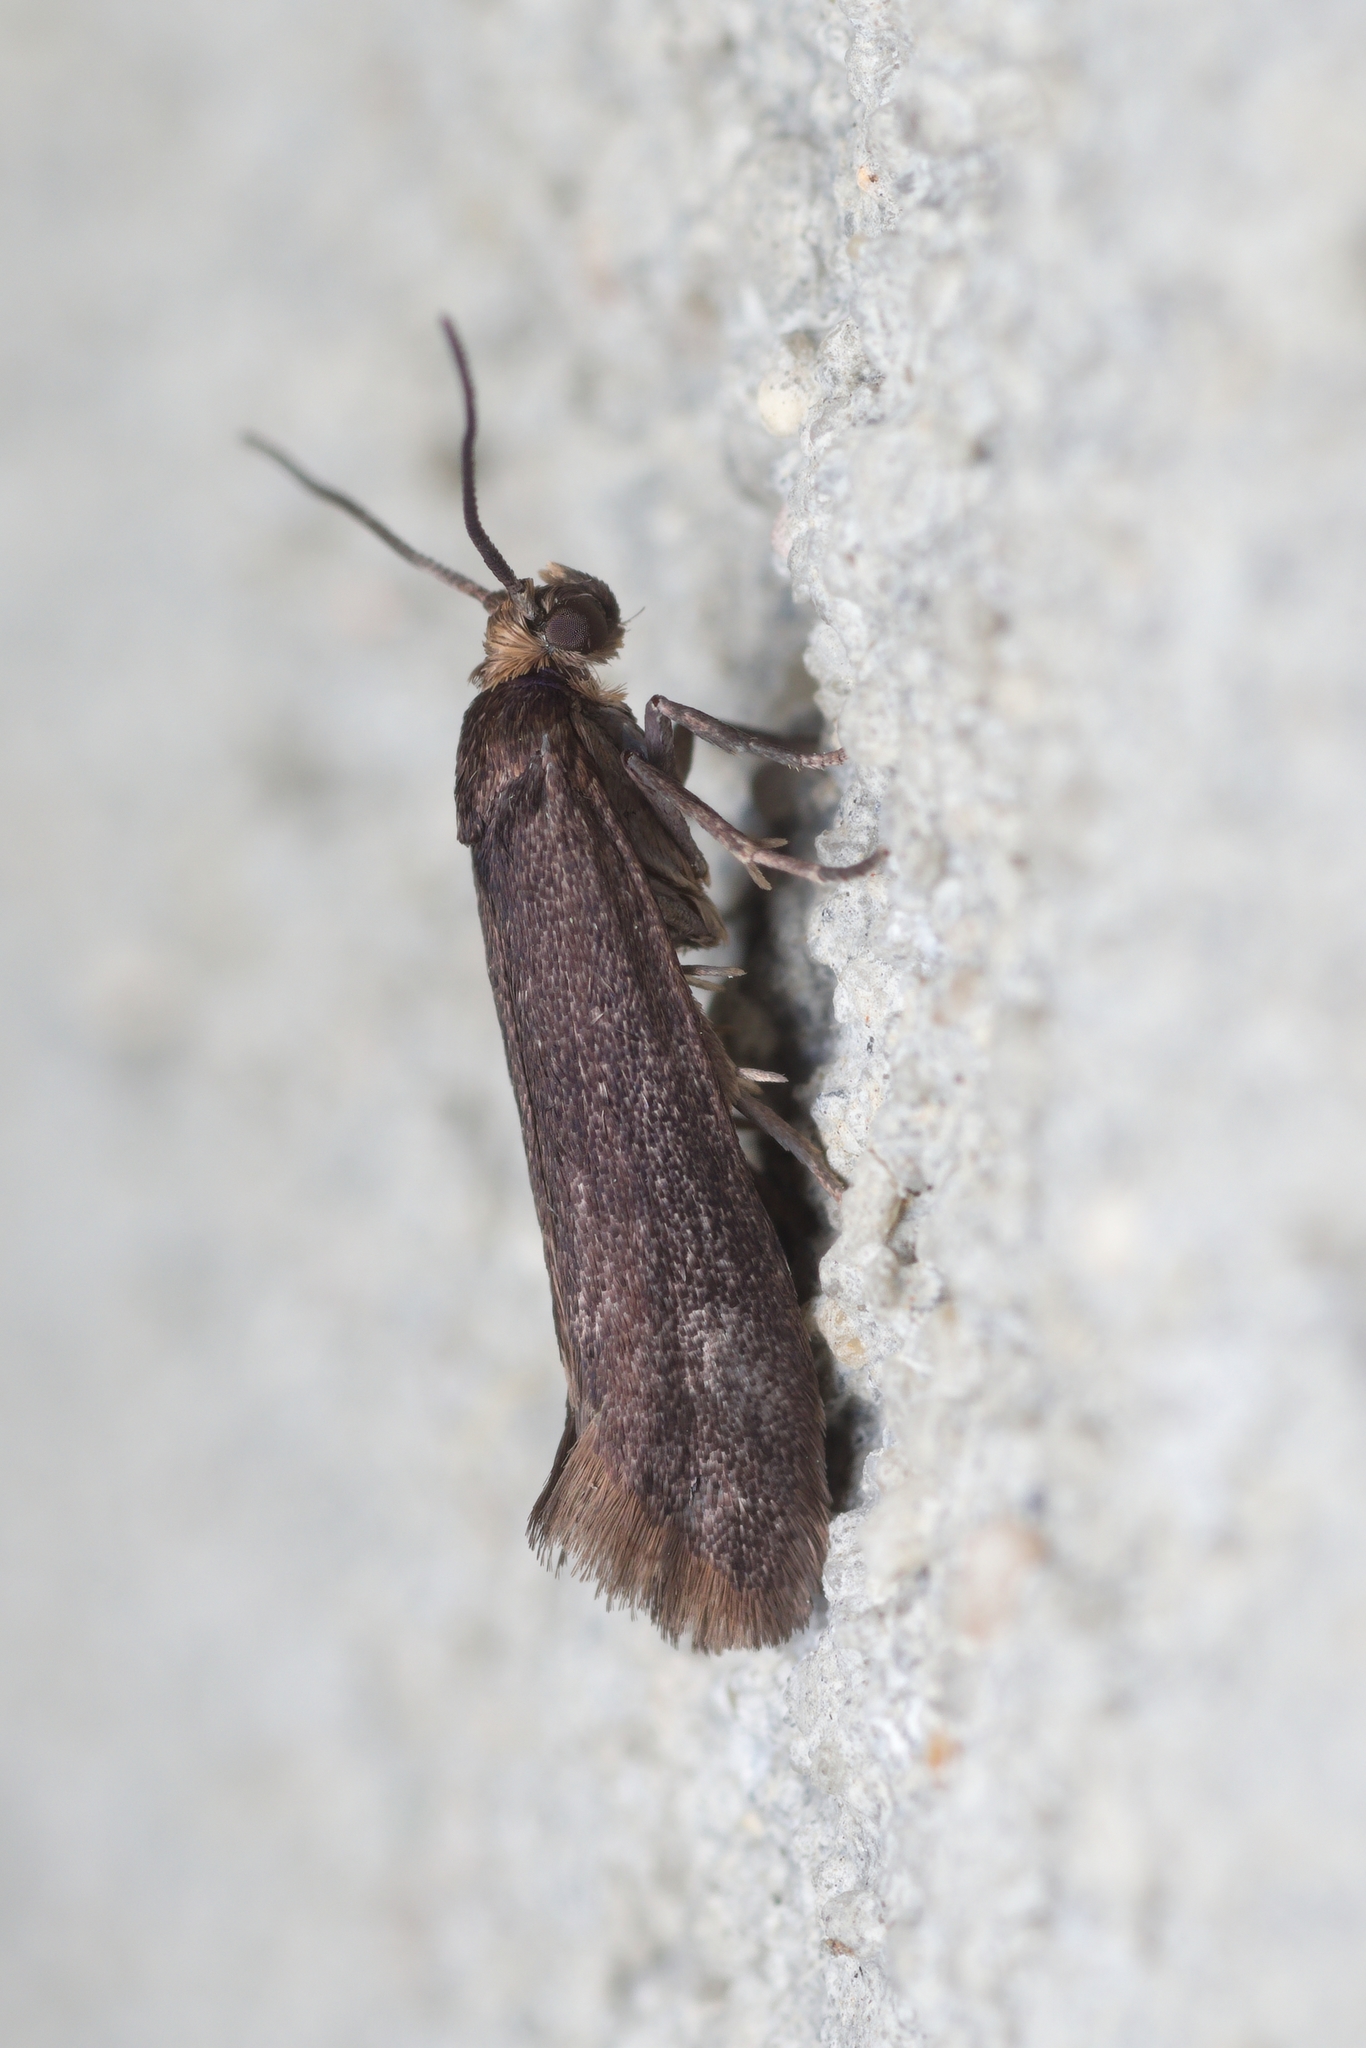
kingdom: Animalia
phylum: Arthropoda
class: Insecta
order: Lepidoptera
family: Praydidae
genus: Prays
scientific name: Prays curtisella
